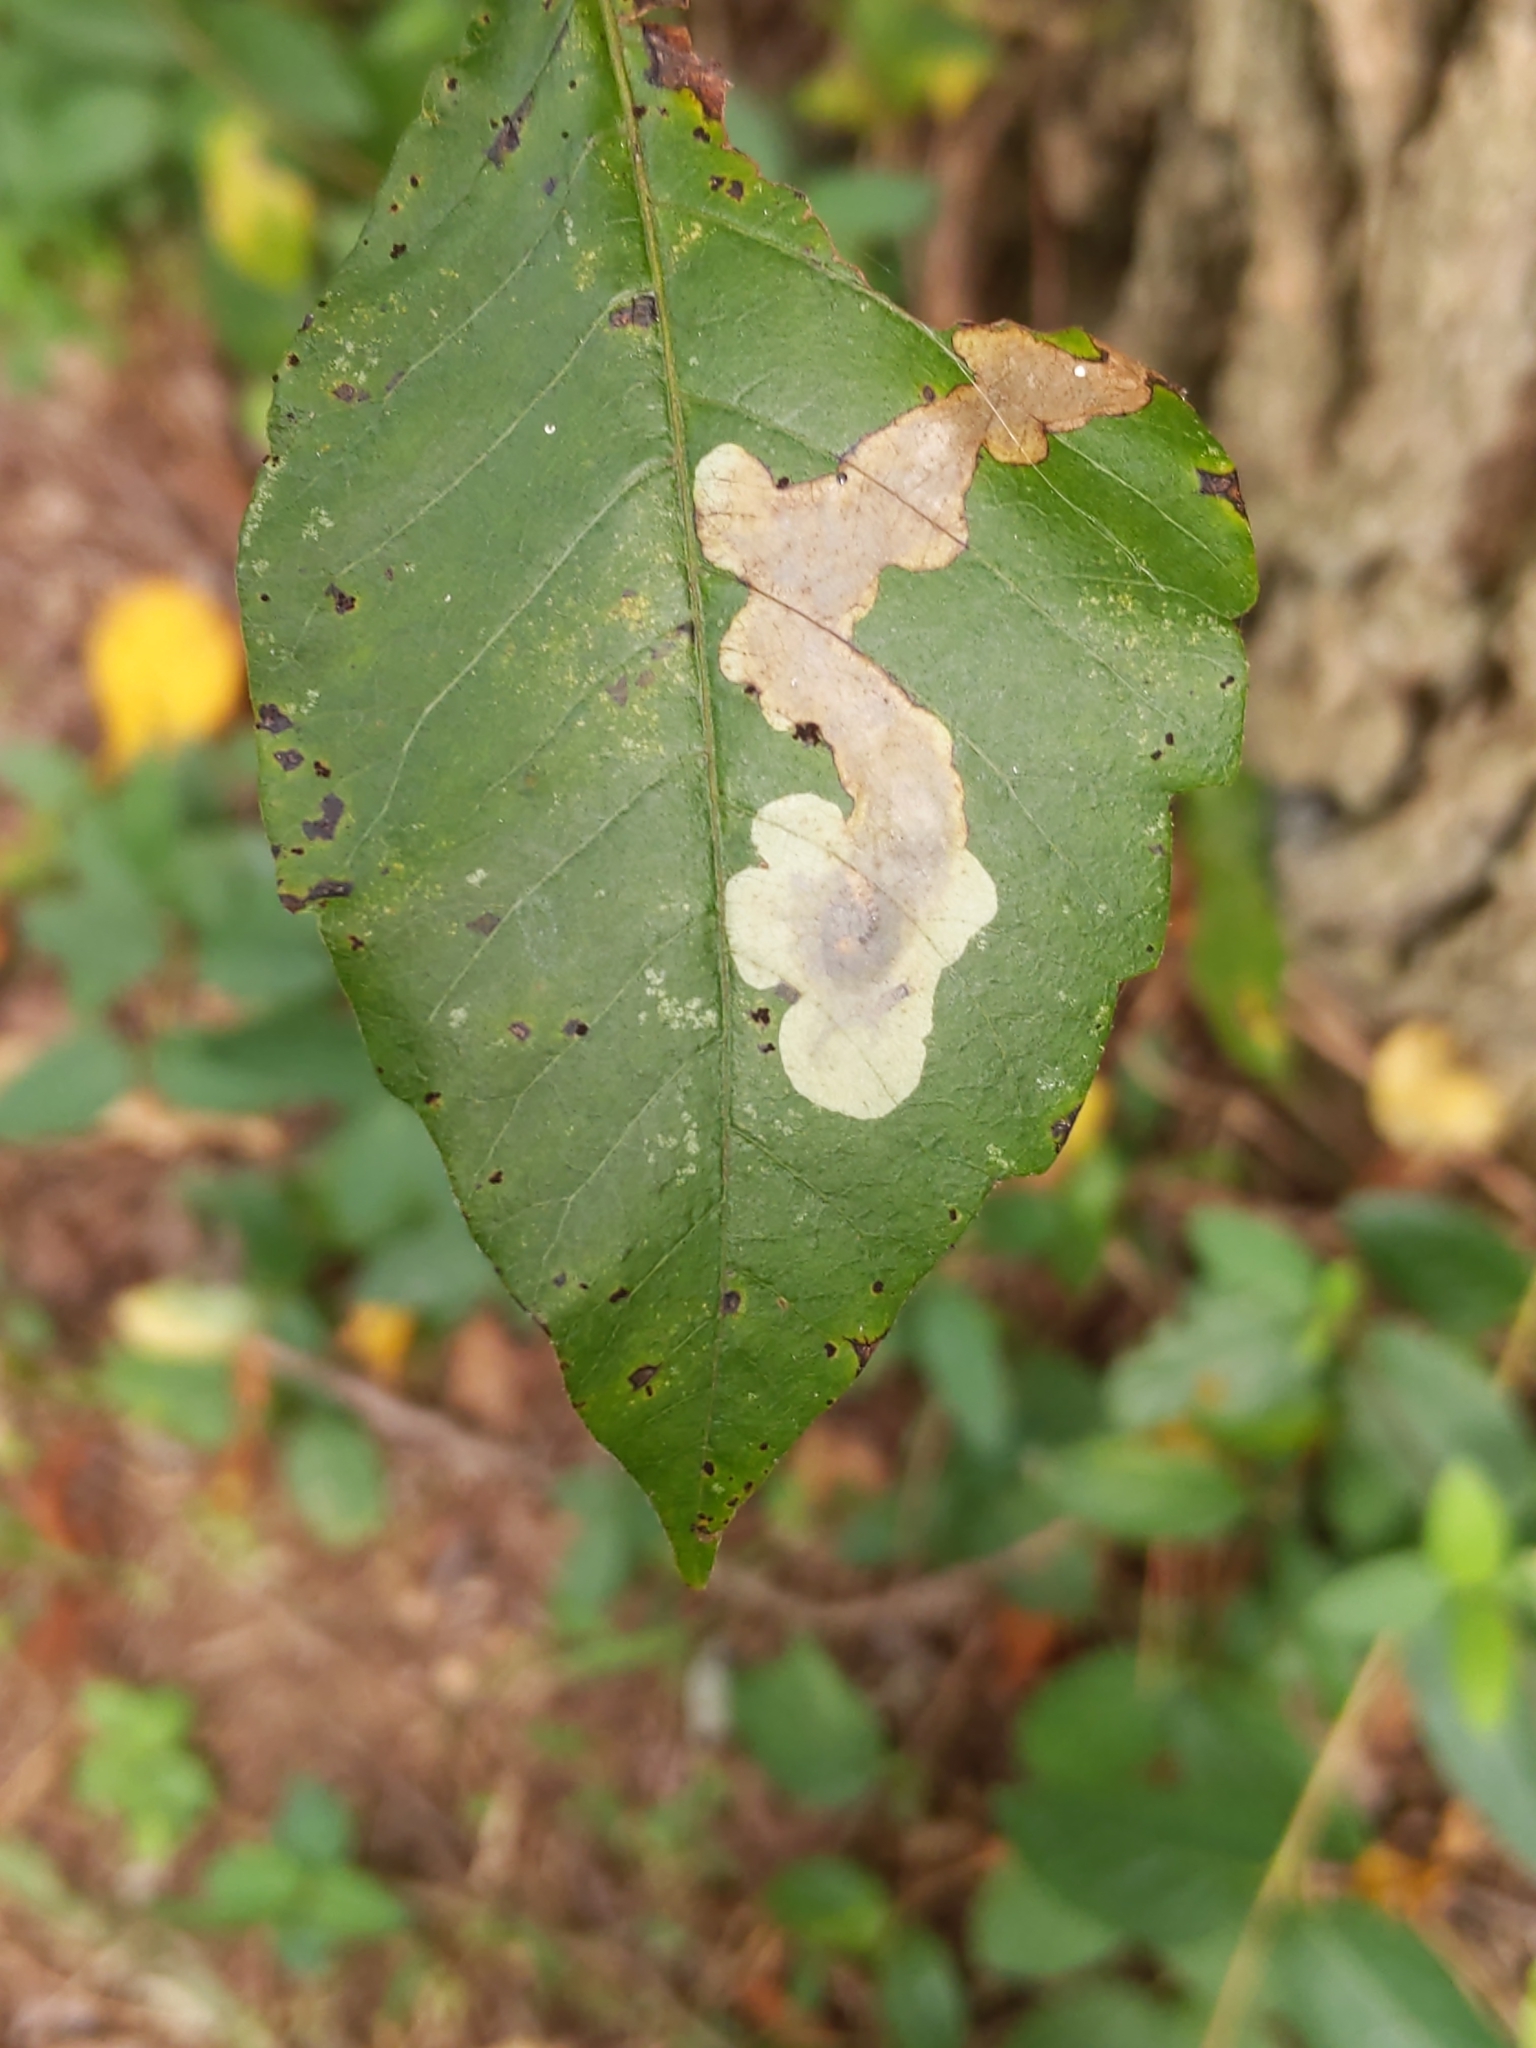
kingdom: Animalia
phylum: Arthropoda
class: Insecta
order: Lepidoptera
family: Gracillariidae
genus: Cameraria
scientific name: Cameraria guttifinitella
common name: Poison ivy leaf-miner moth
